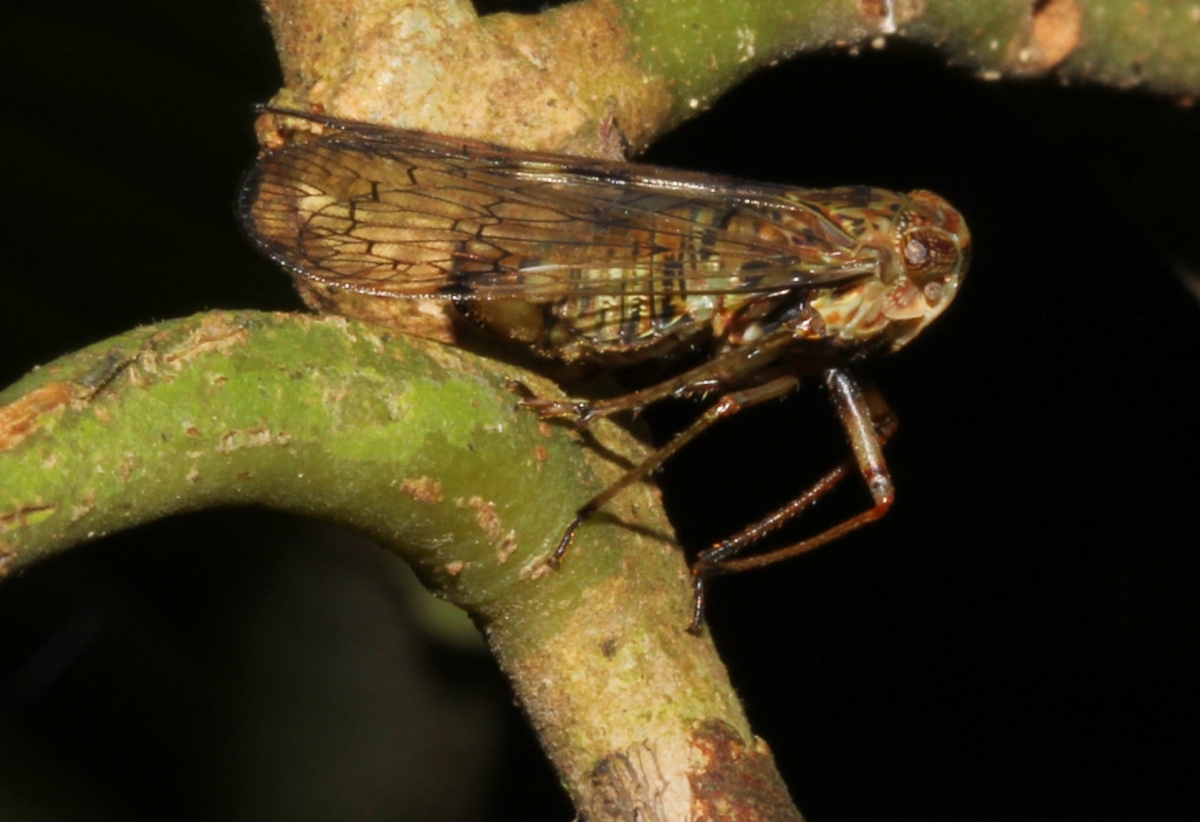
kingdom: Animalia
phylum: Arthropoda
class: Insecta
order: Hemiptera
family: Fulgoridae
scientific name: Fulgoridae
